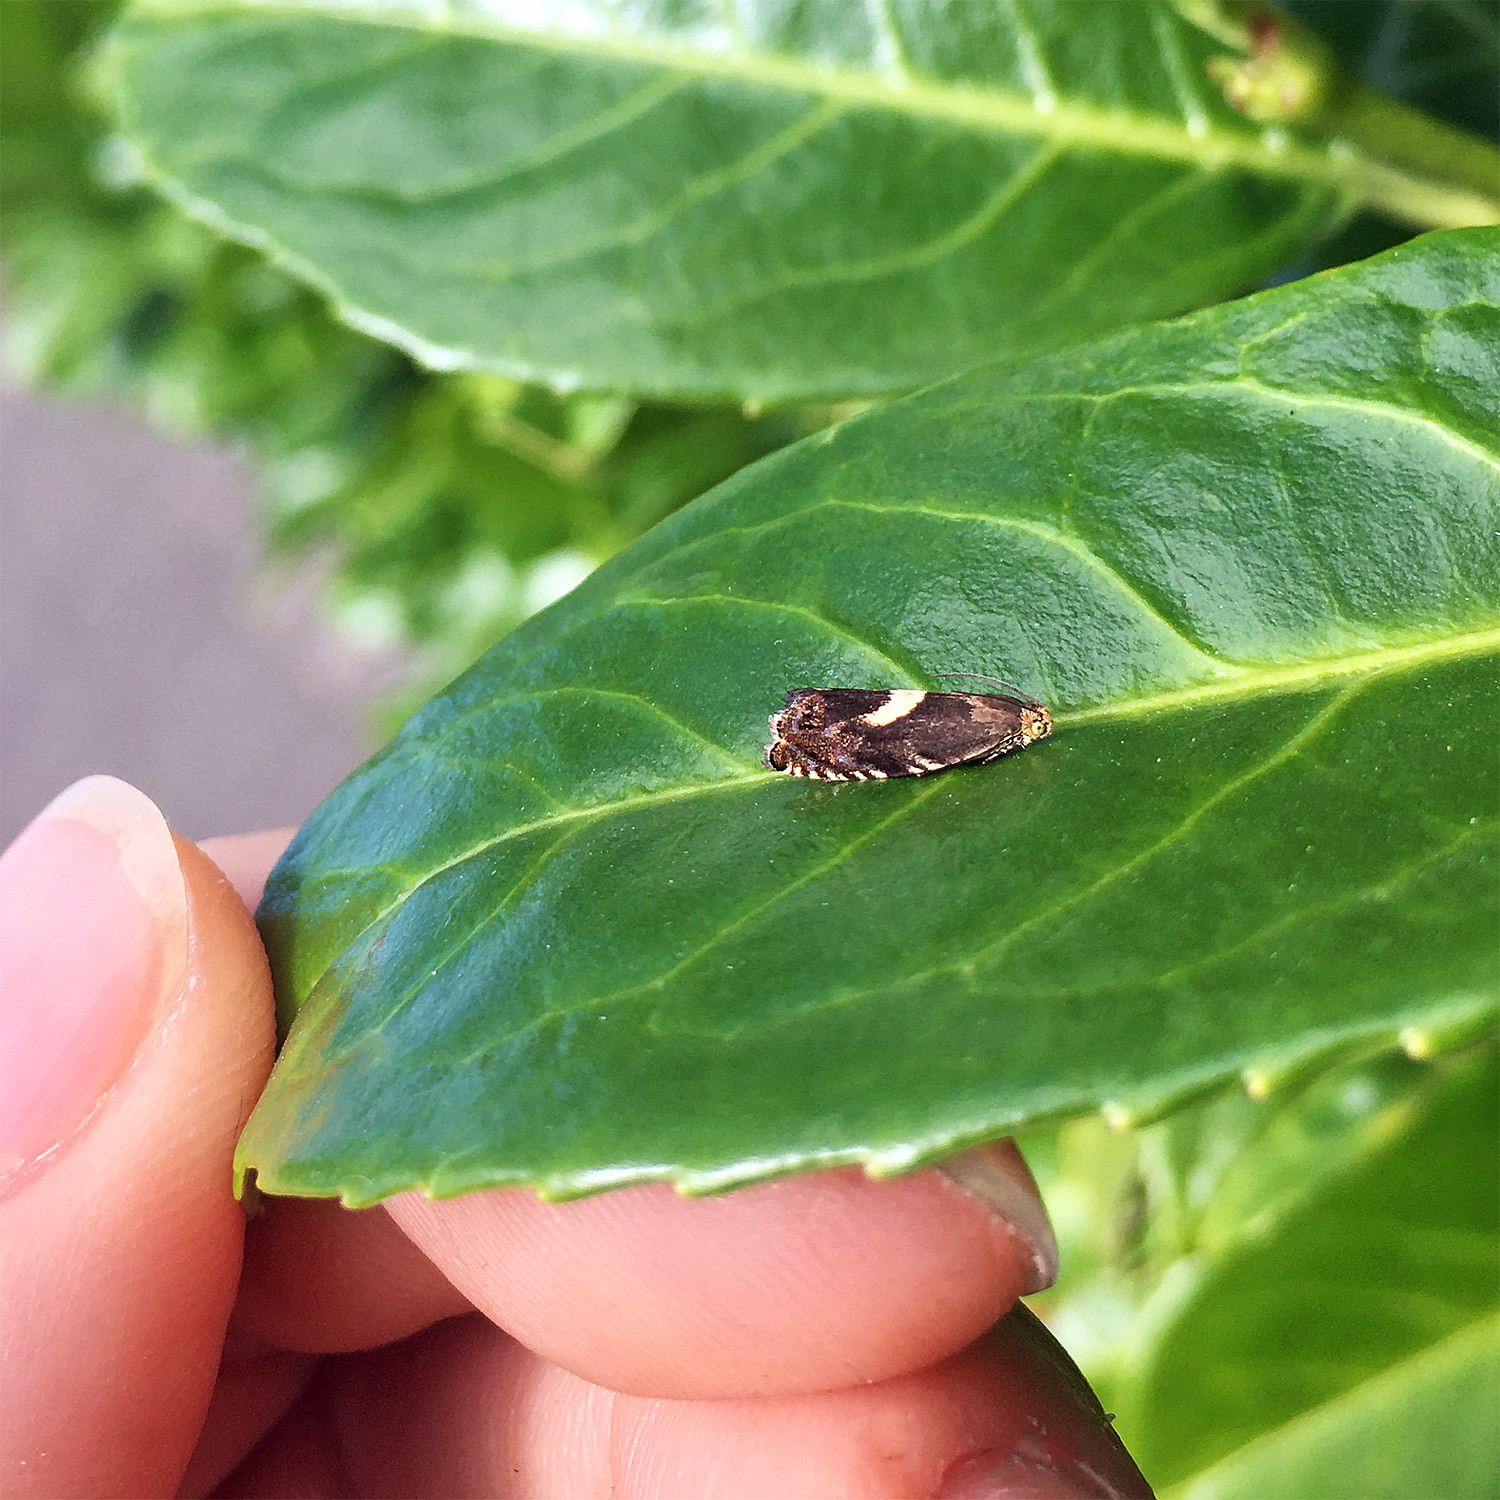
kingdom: Animalia
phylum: Arthropoda
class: Insecta
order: Lepidoptera
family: Tortricidae
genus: Grapholita
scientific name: Grapholita discretana
